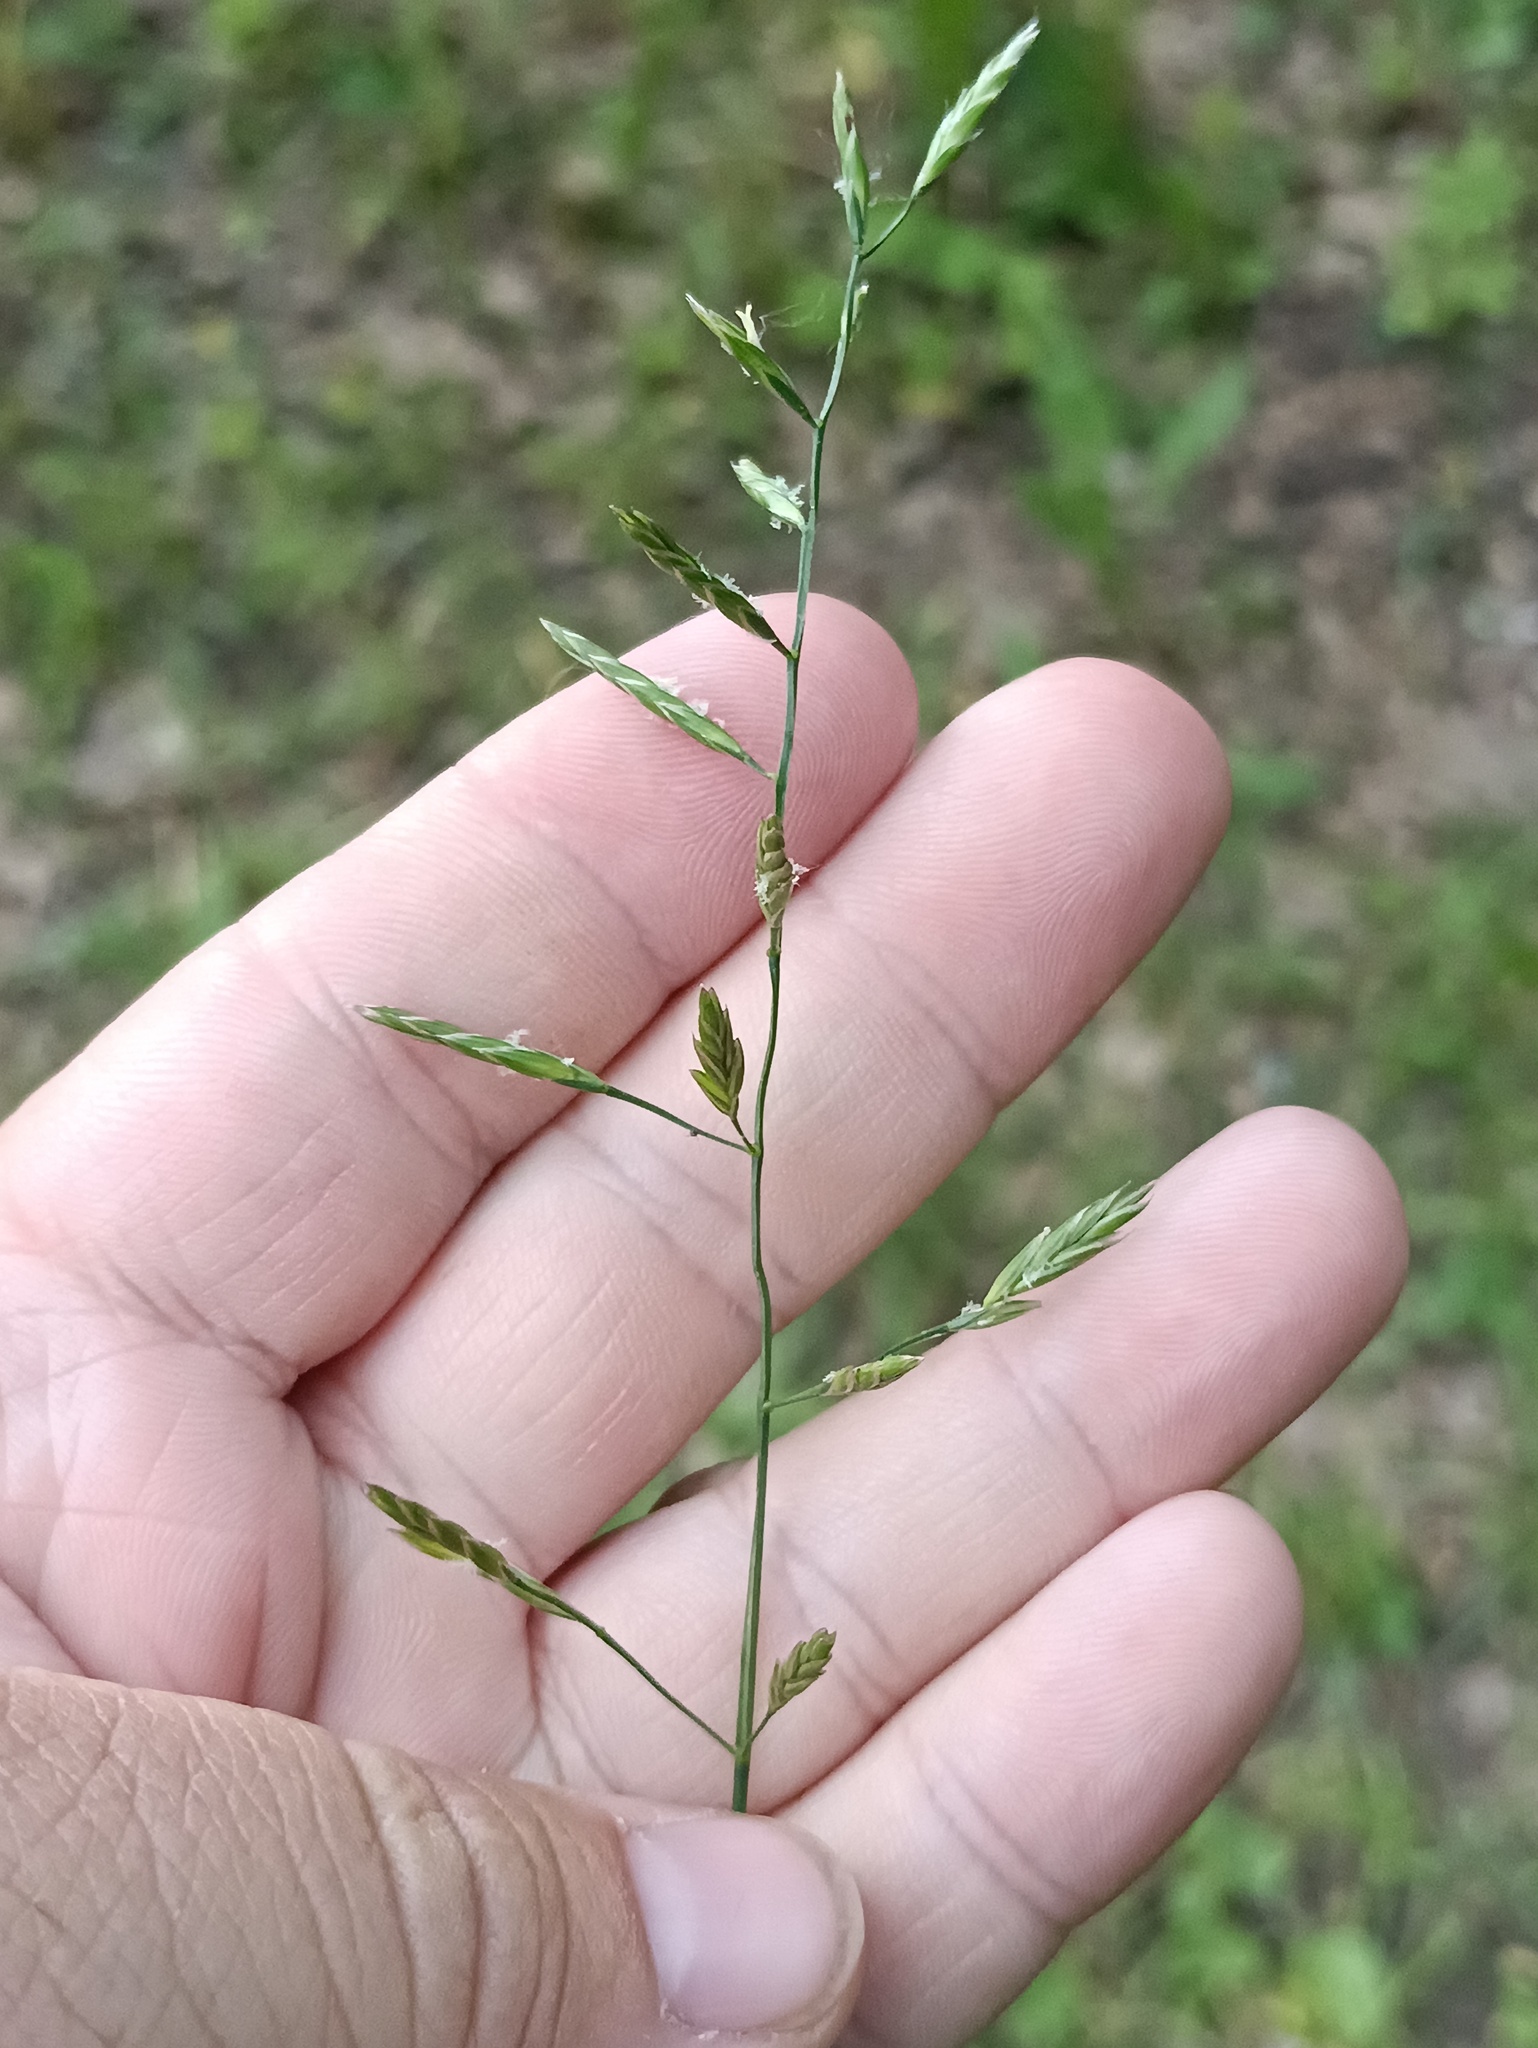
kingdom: Plantae
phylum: Tracheophyta
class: Liliopsida
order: Poales
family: Poaceae
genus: Lolium
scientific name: Lolium pratense
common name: Dover grass
